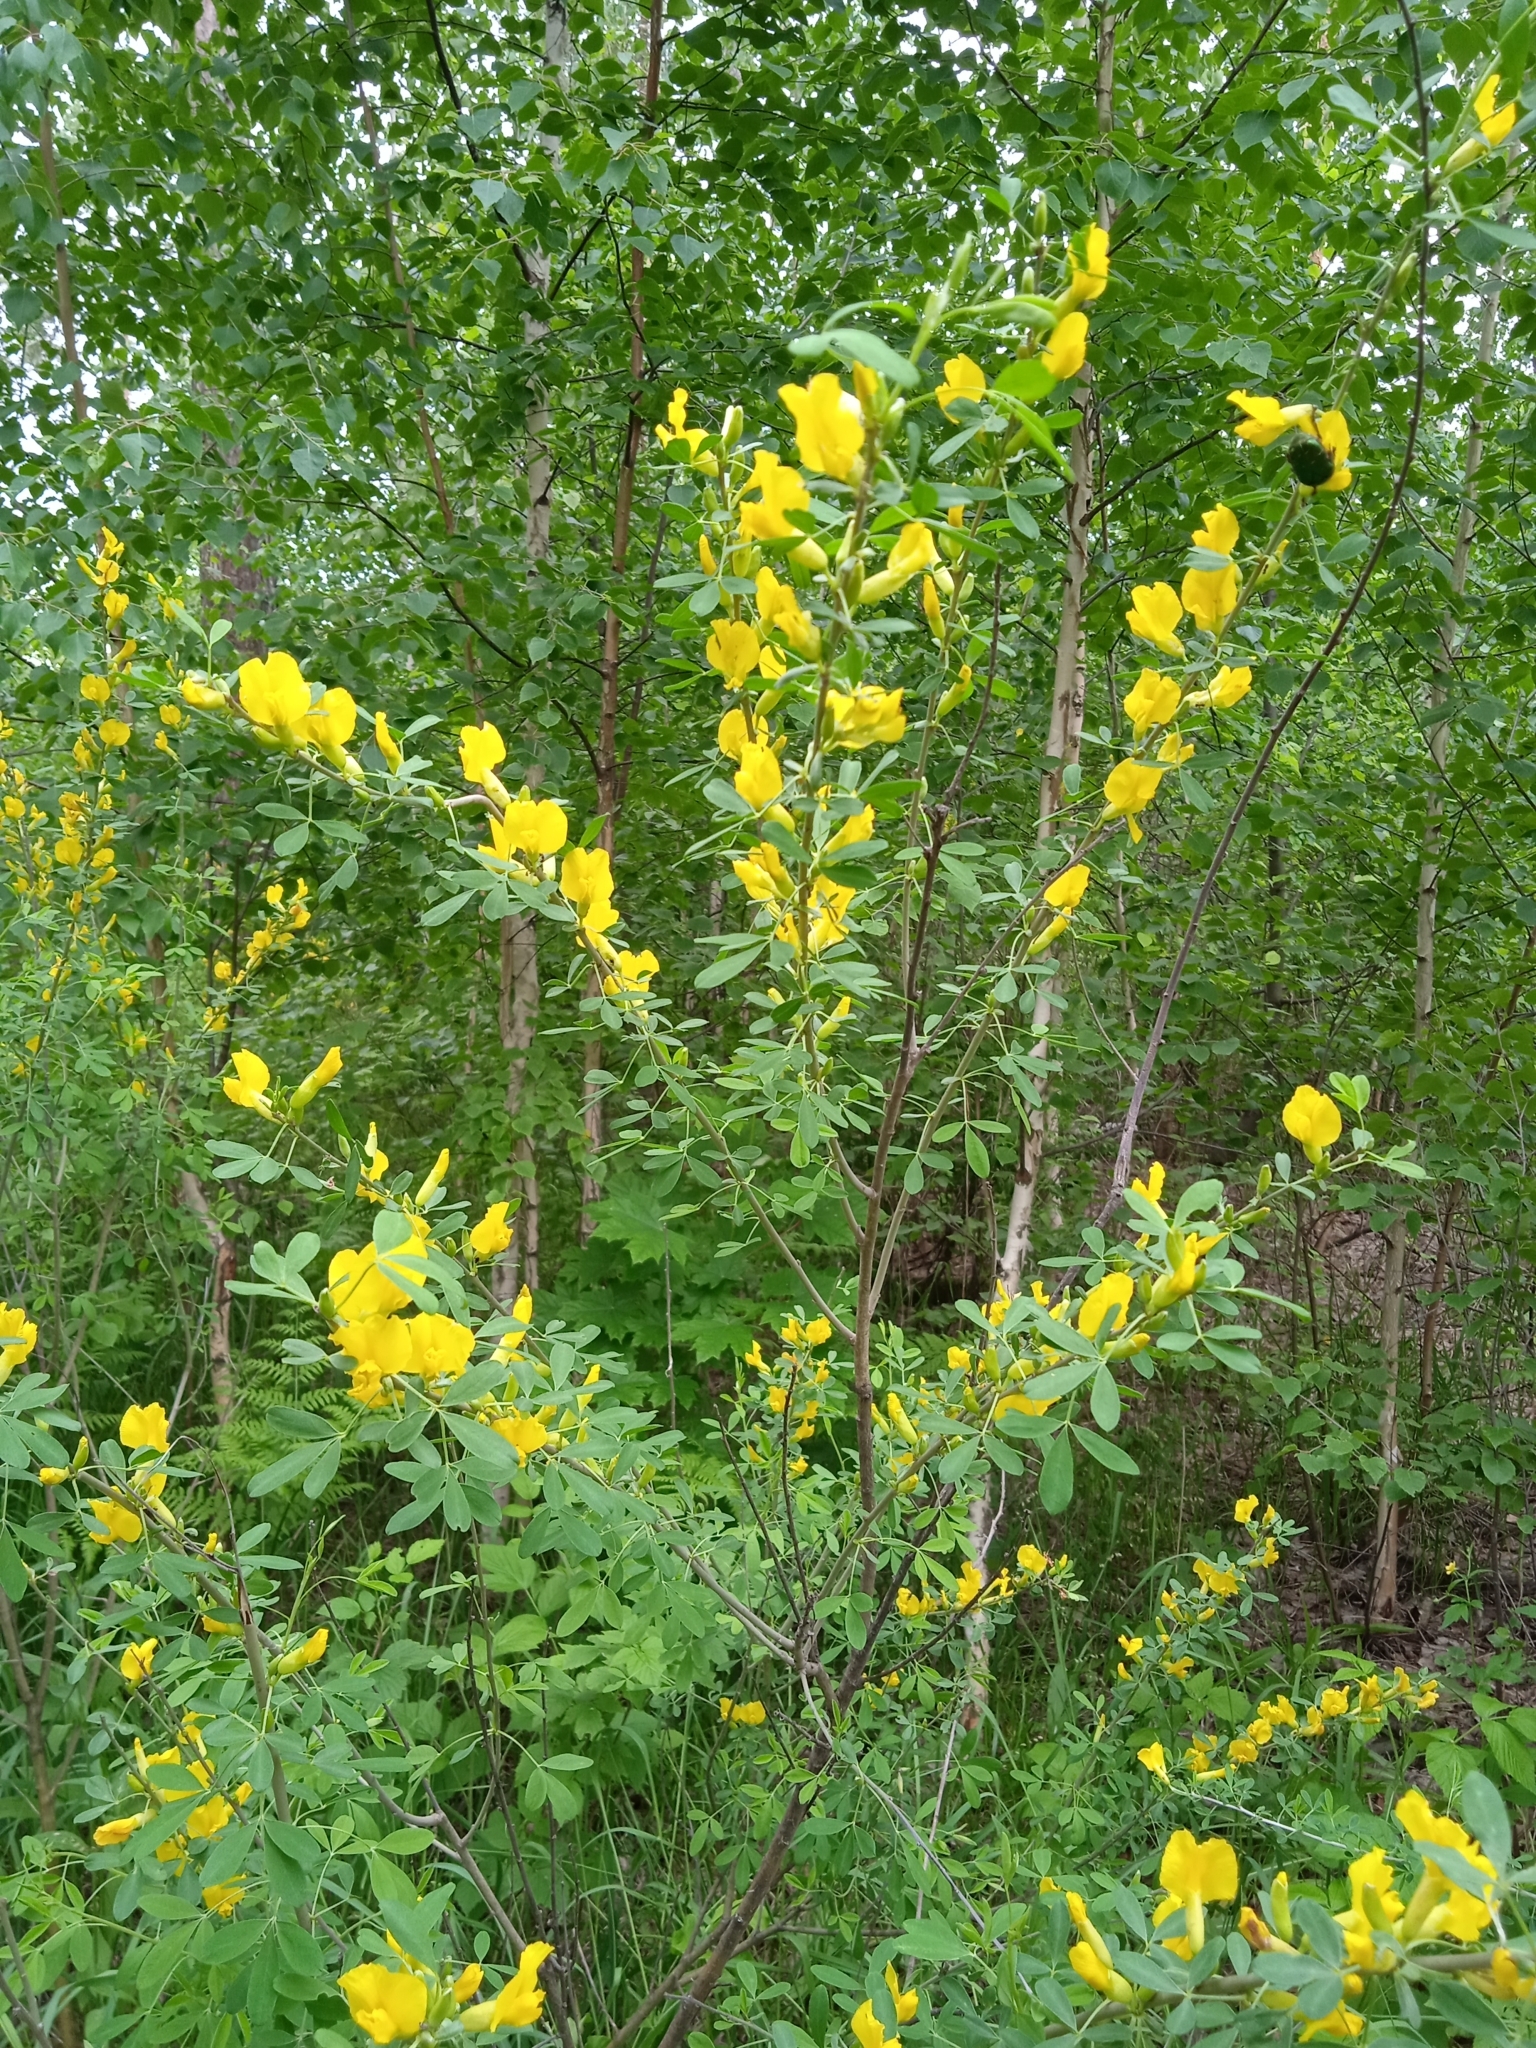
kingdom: Plantae
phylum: Tracheophyta
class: Magnoliopsida
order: Fabales
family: Fabaceae
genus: Chamaecytisus
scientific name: Chamaecytisus ruthenicus
